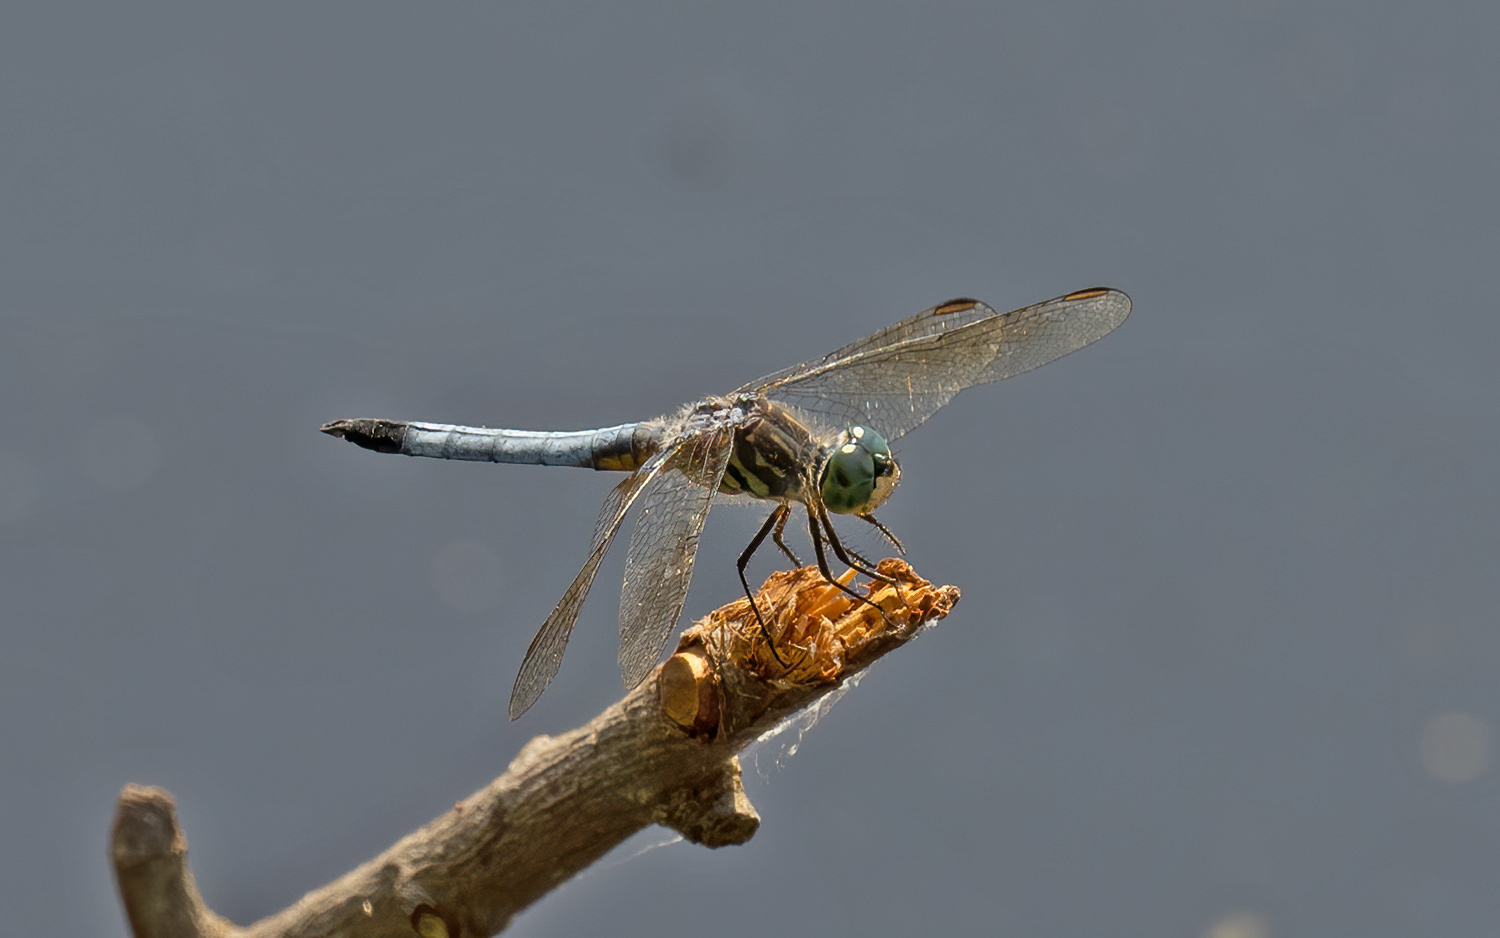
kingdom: Animalia
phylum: Arthropoda
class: Insecta
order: Odonata
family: Libellulidae
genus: Pachydiplax
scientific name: Pachydiplax longipennis
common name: Blue dasher
